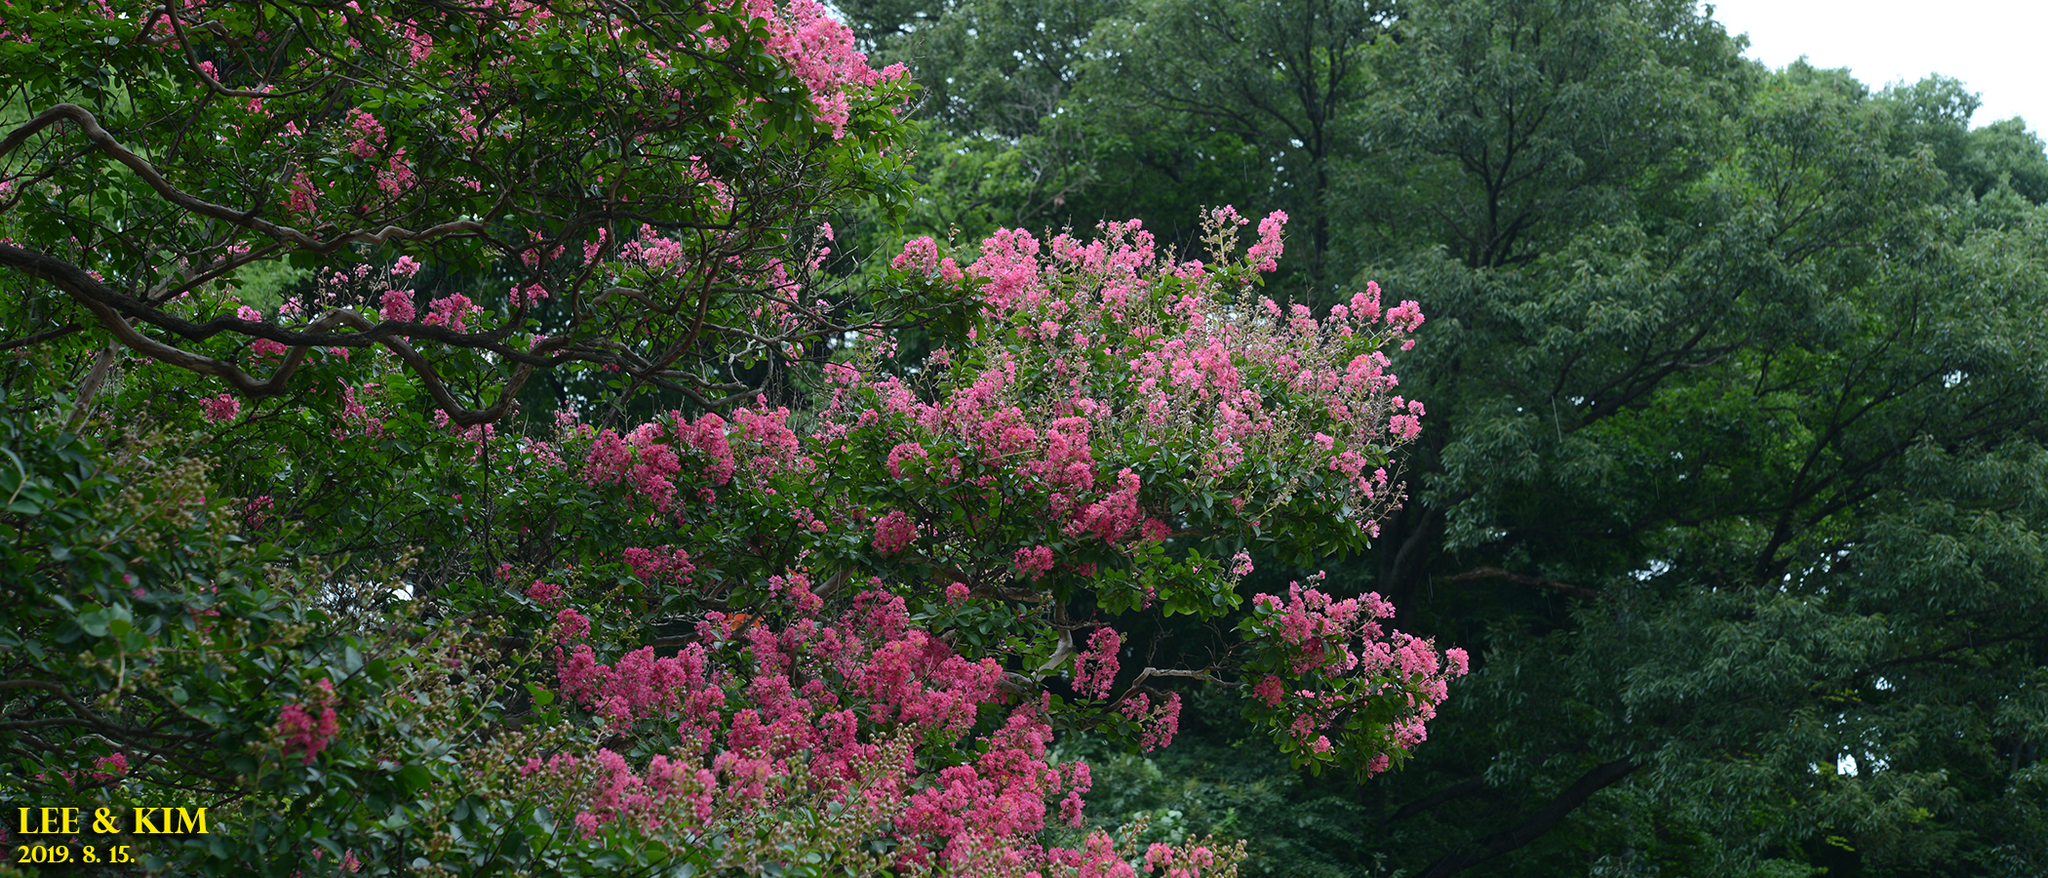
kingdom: Plantae
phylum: Tracheophyta
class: Magnoliopsida
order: Myrtales
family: Lythraceae
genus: Lagerstroemia
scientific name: Lagerstroemia indica
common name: Crape-myrtle
